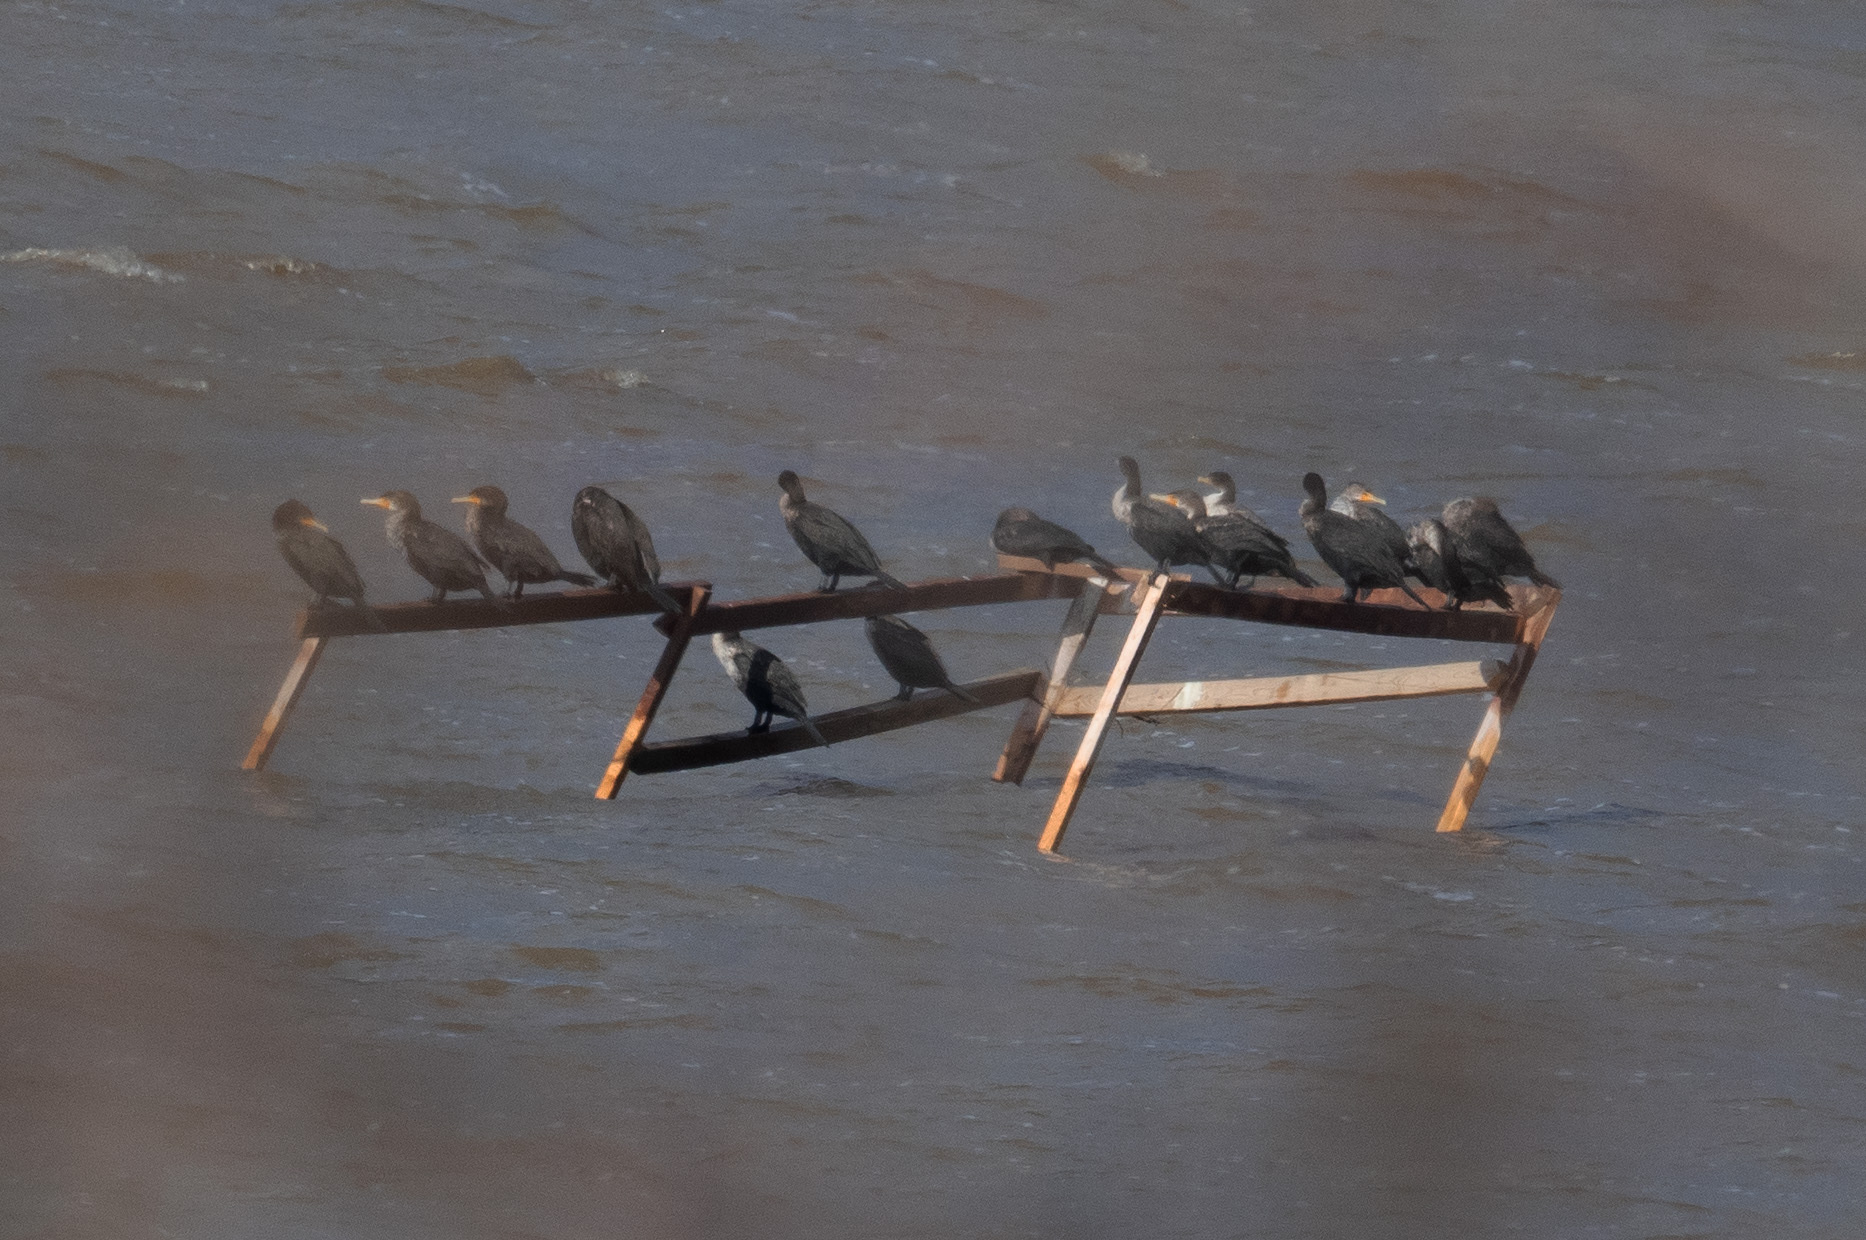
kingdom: Animalia
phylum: Chordata
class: Aves
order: Suliformes
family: Phalacrocoracidae
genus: Phalacrocorax
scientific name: Phalacrocorax auritus
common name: Double-crested cormorant
